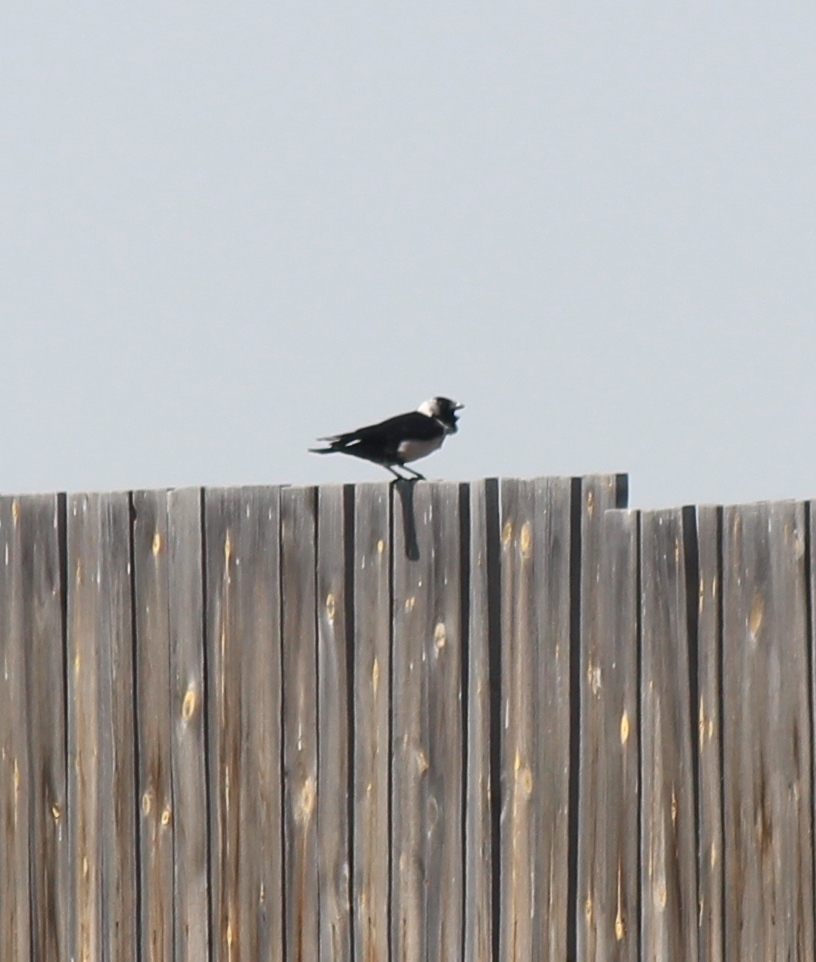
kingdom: Animalia
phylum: Chordata
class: Aves
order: Passeriformes
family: Corvidae
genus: Coloeus
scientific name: Coloeus dauuricus
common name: Daurian jackdaw
